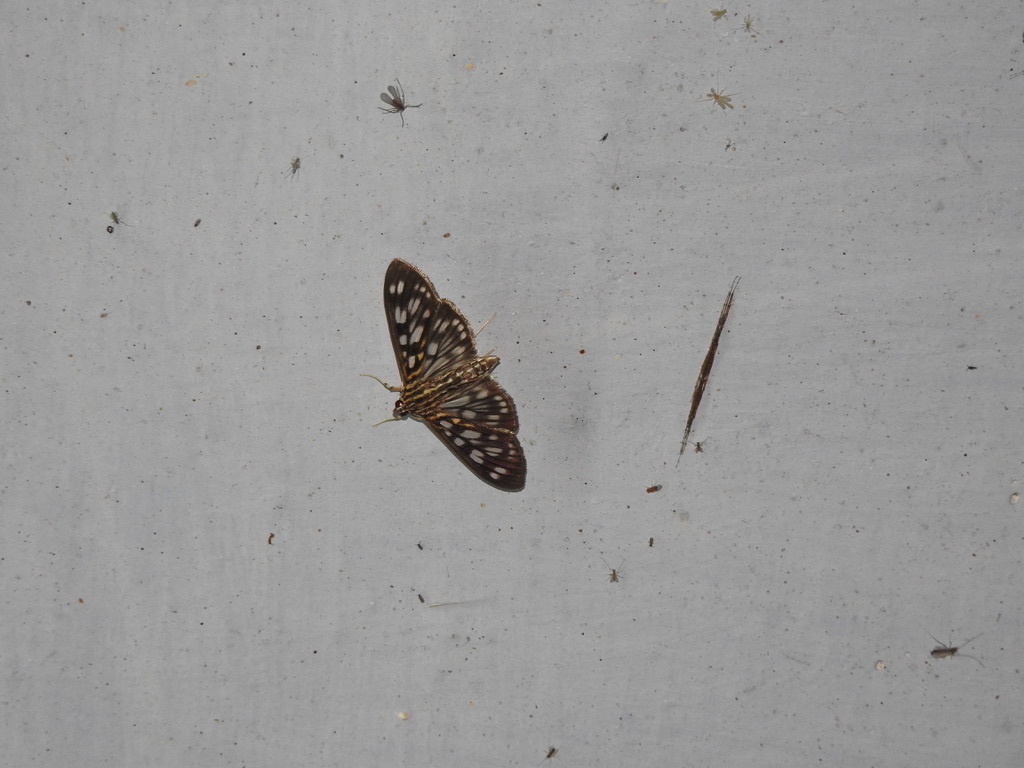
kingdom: Animalia
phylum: Arthropoda
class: Insecta
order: Lepidoptera
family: Crambidae
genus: Pygospila
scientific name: Pygospila tyres
